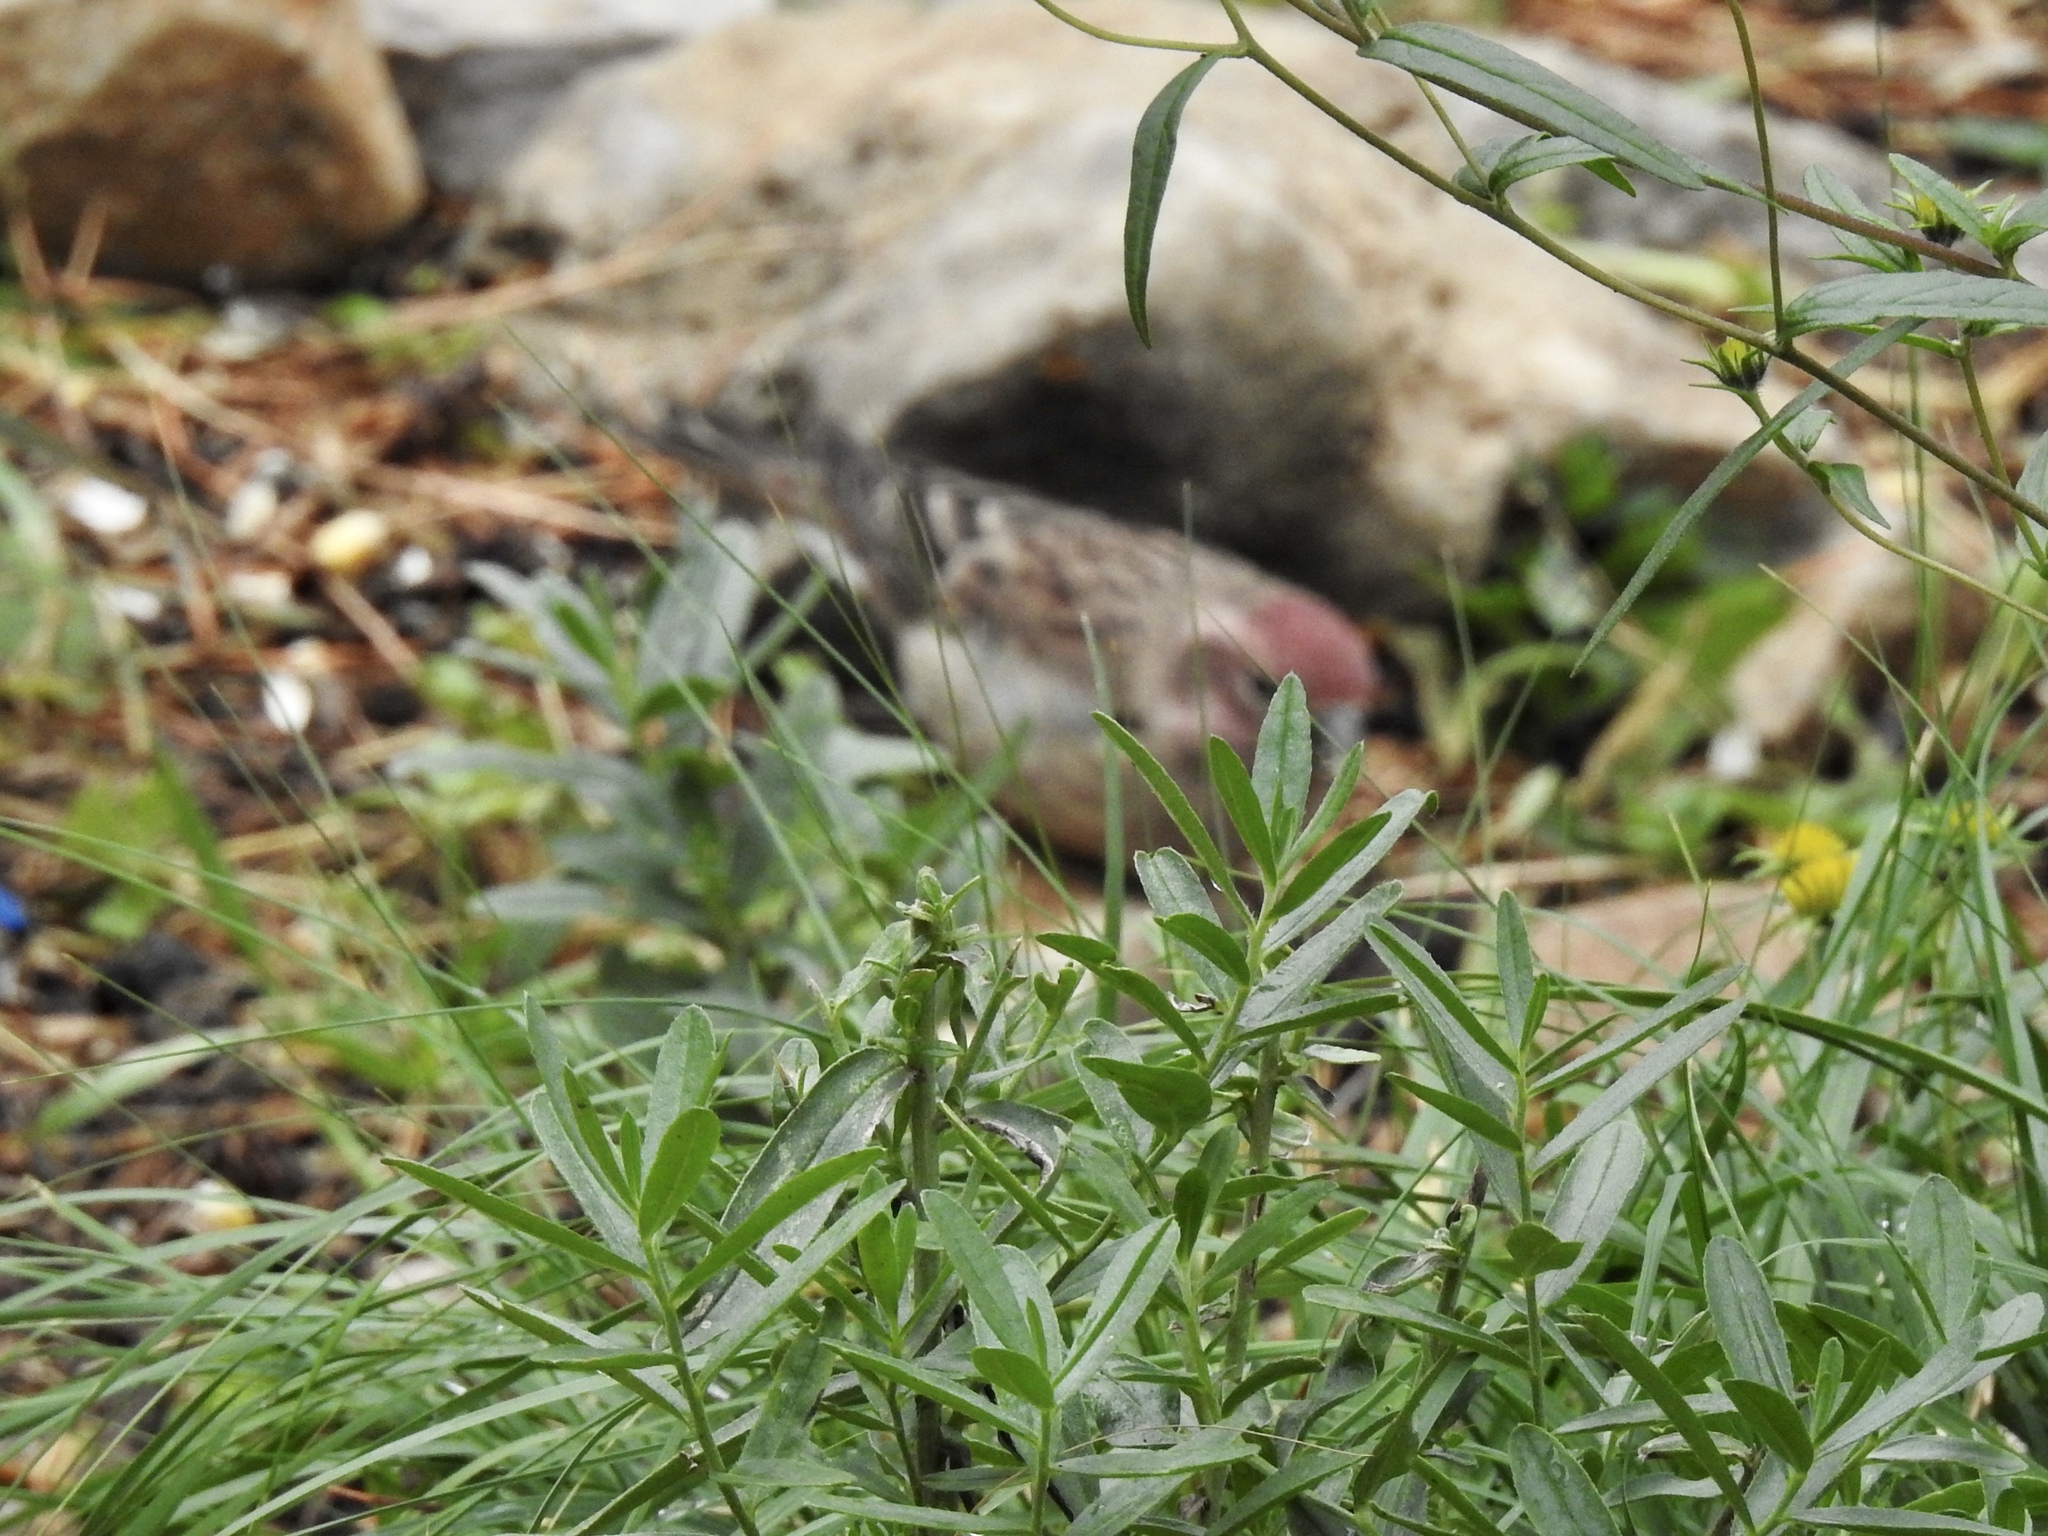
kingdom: Animalia
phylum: Chordata
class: Aves
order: Passeriformes
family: Fringillidae
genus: Haemorhous
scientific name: Haemorhous cassinii
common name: Cassin's finch
